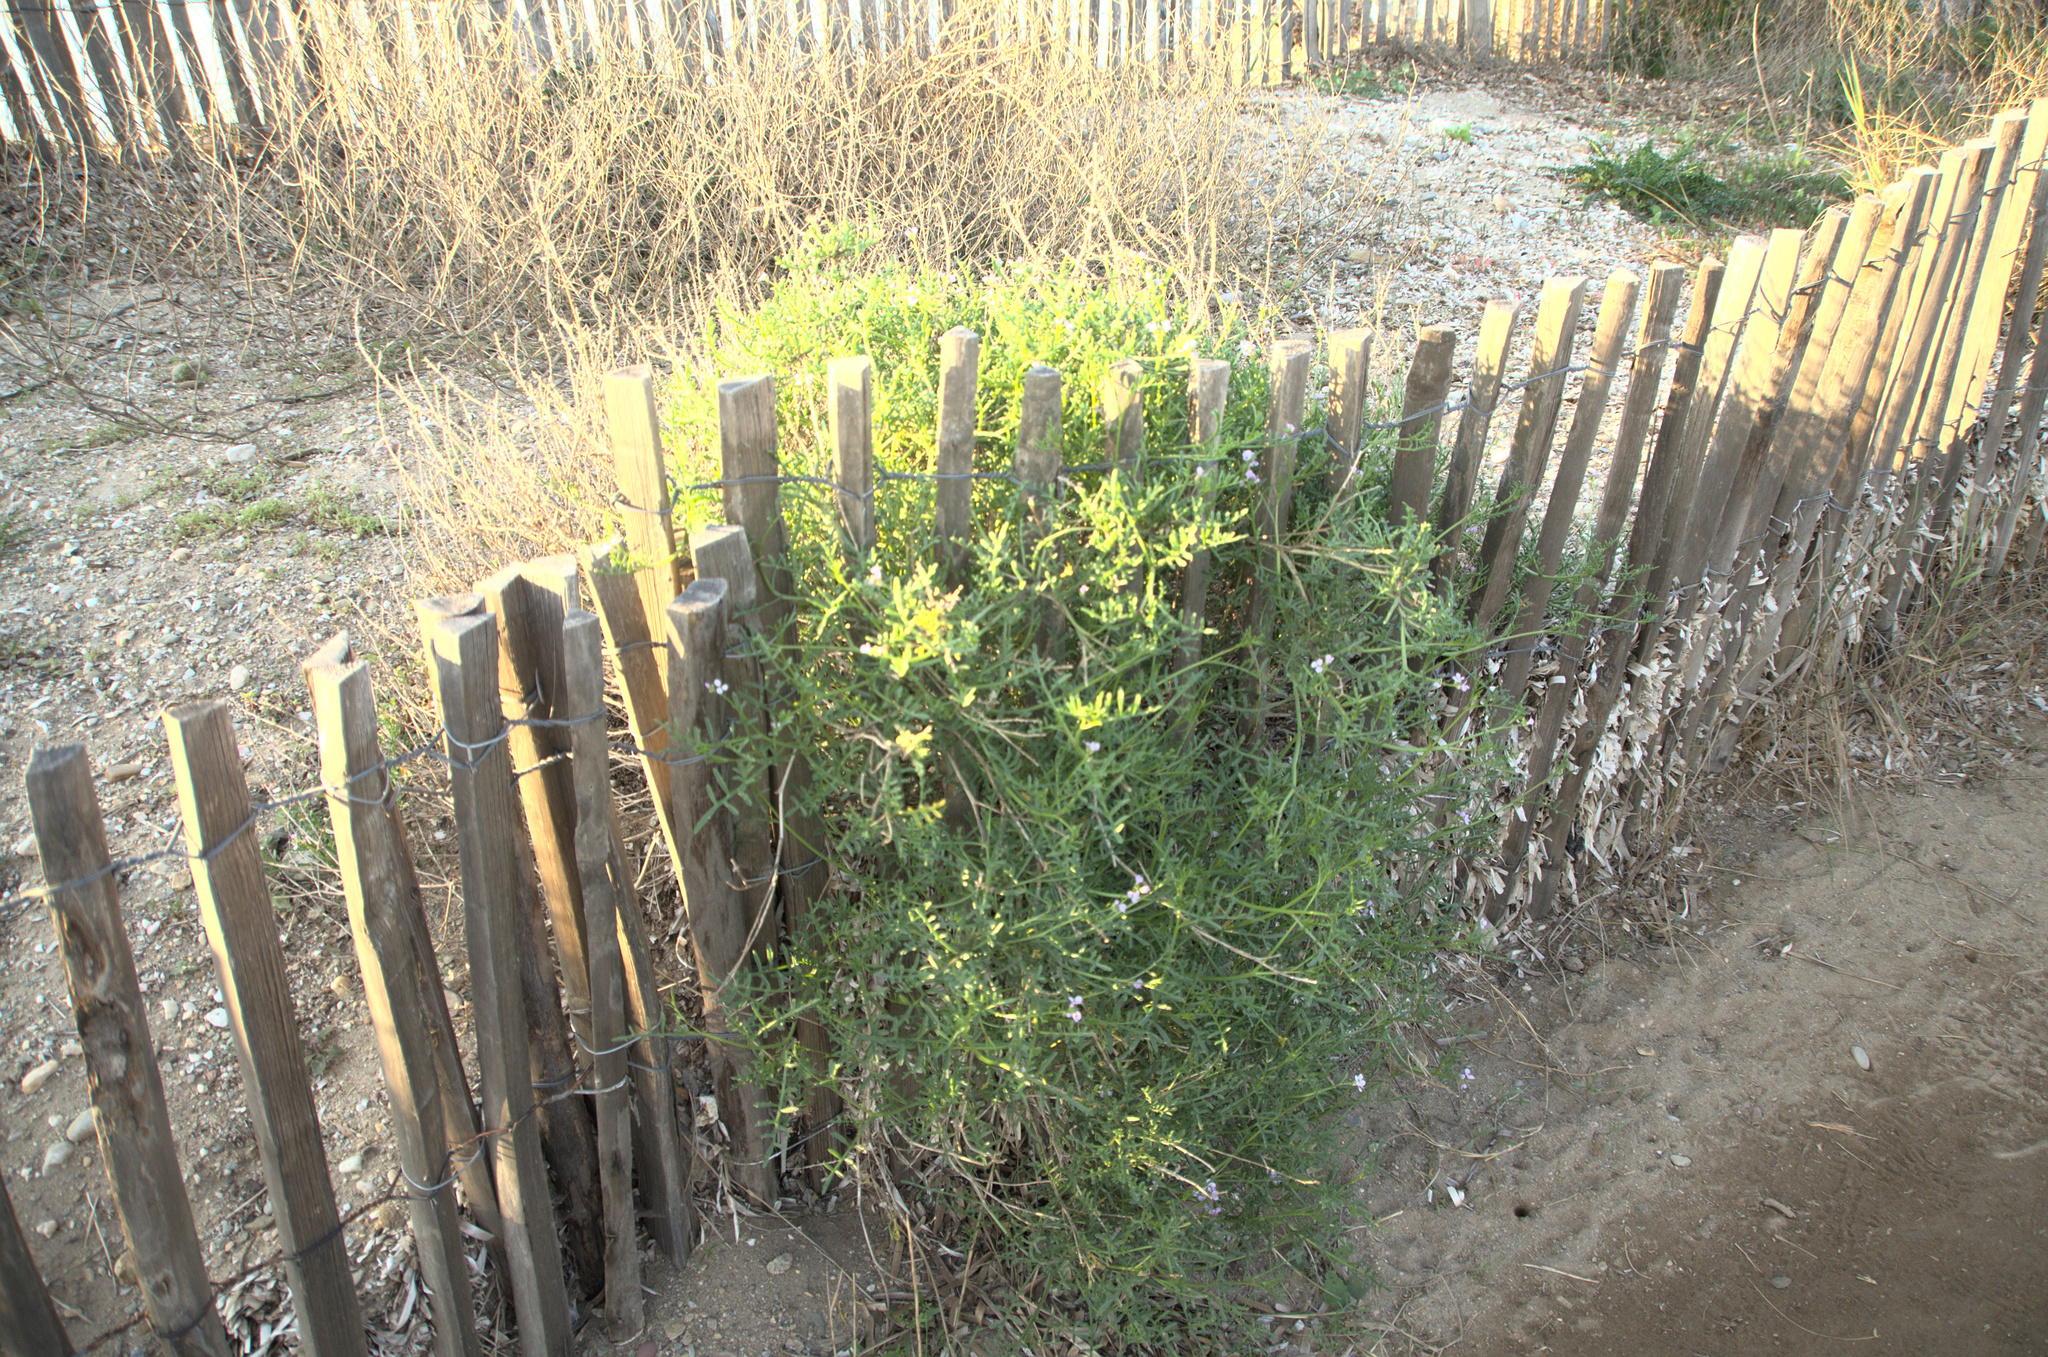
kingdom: Plantae
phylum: Tracheophyta
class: Magnoliopsida
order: Brassicales
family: Brassicaceae
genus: Cakile
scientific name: Cakile maritima
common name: Sea rocket
